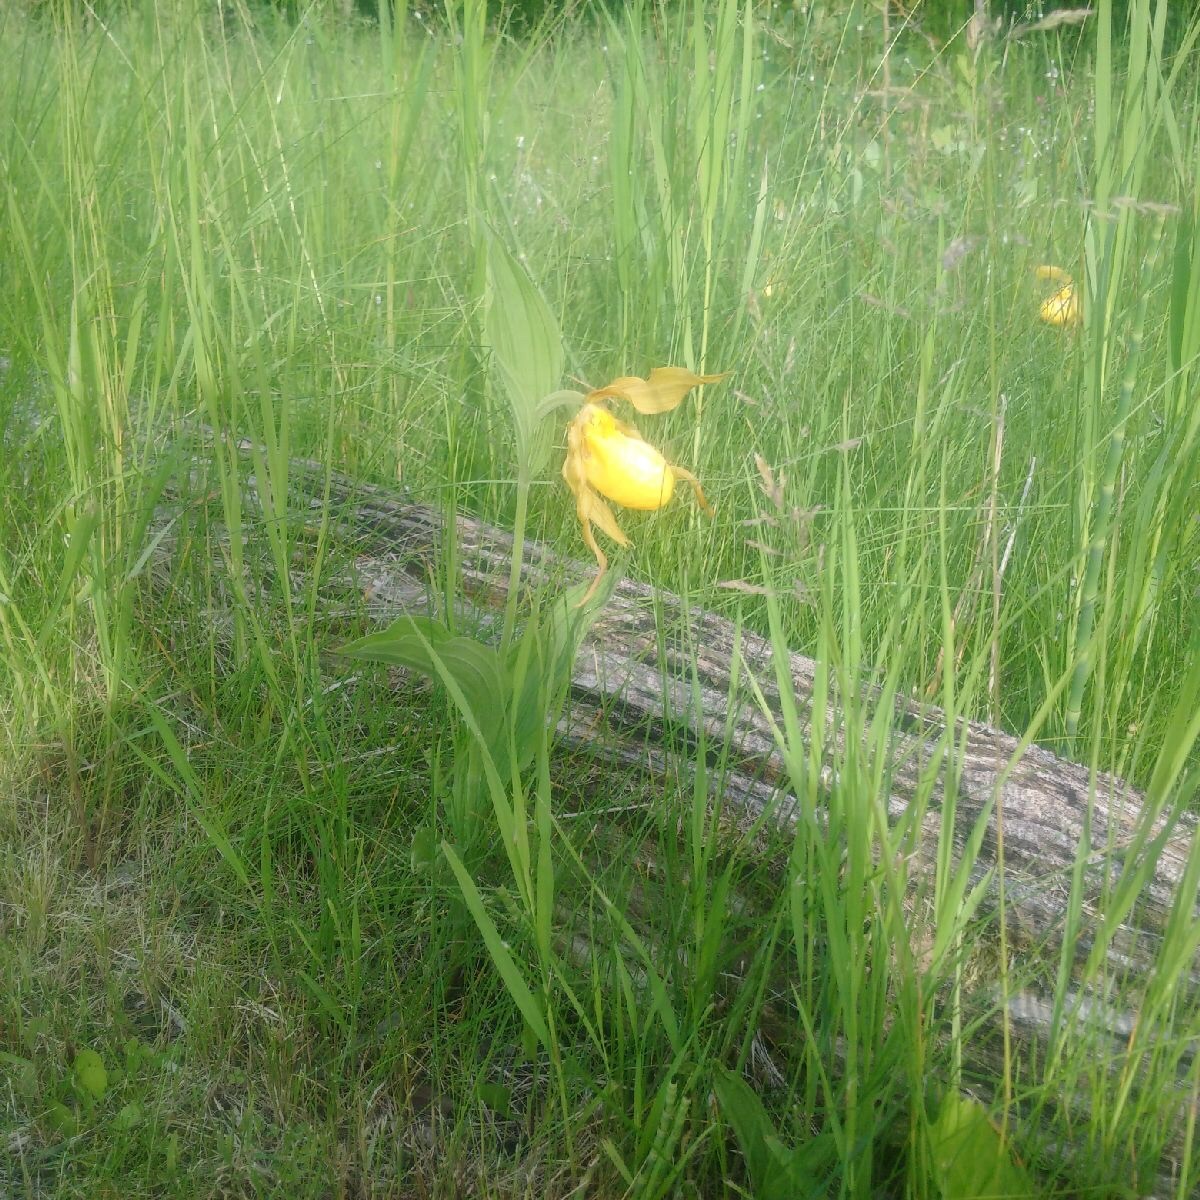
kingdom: Plantae
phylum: Tracheophyta
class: Liliopsida
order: Asparagales
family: Orchidaceae
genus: Cypripedium
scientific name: Cypripedium parviflorum
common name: American yellow lady's-slipper
